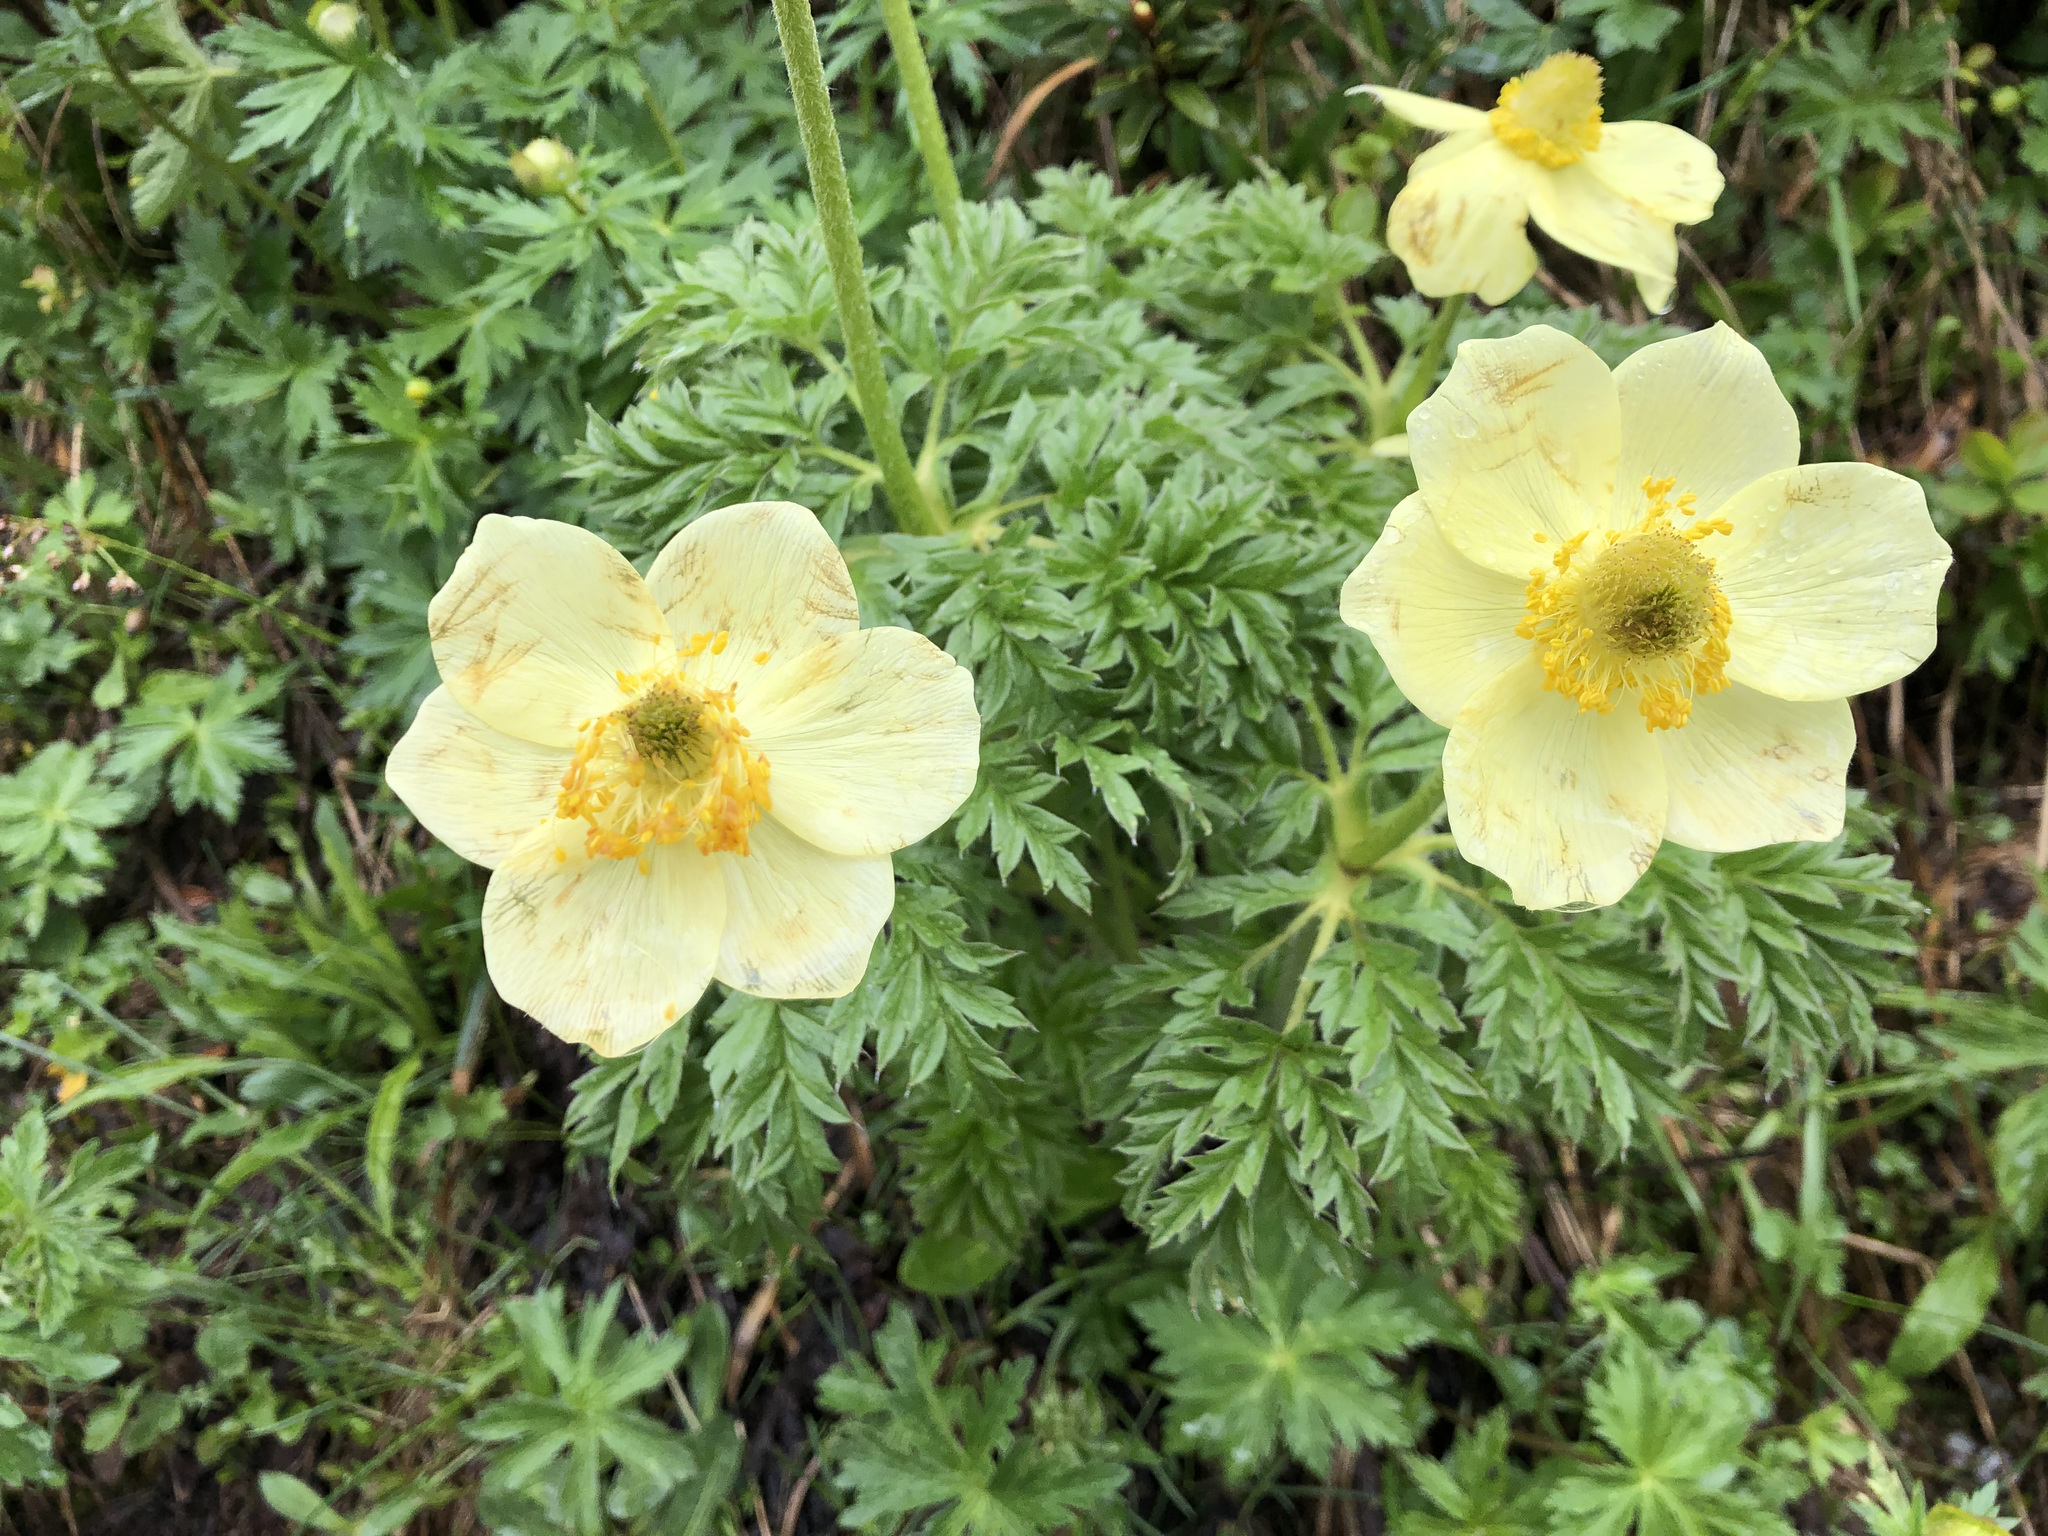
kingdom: Plantae
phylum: Tracheophyta
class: Magnoliopsida
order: Ranunculales
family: Ranunculaceae
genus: Pulsatilla
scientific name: Pulsatilla alpina
